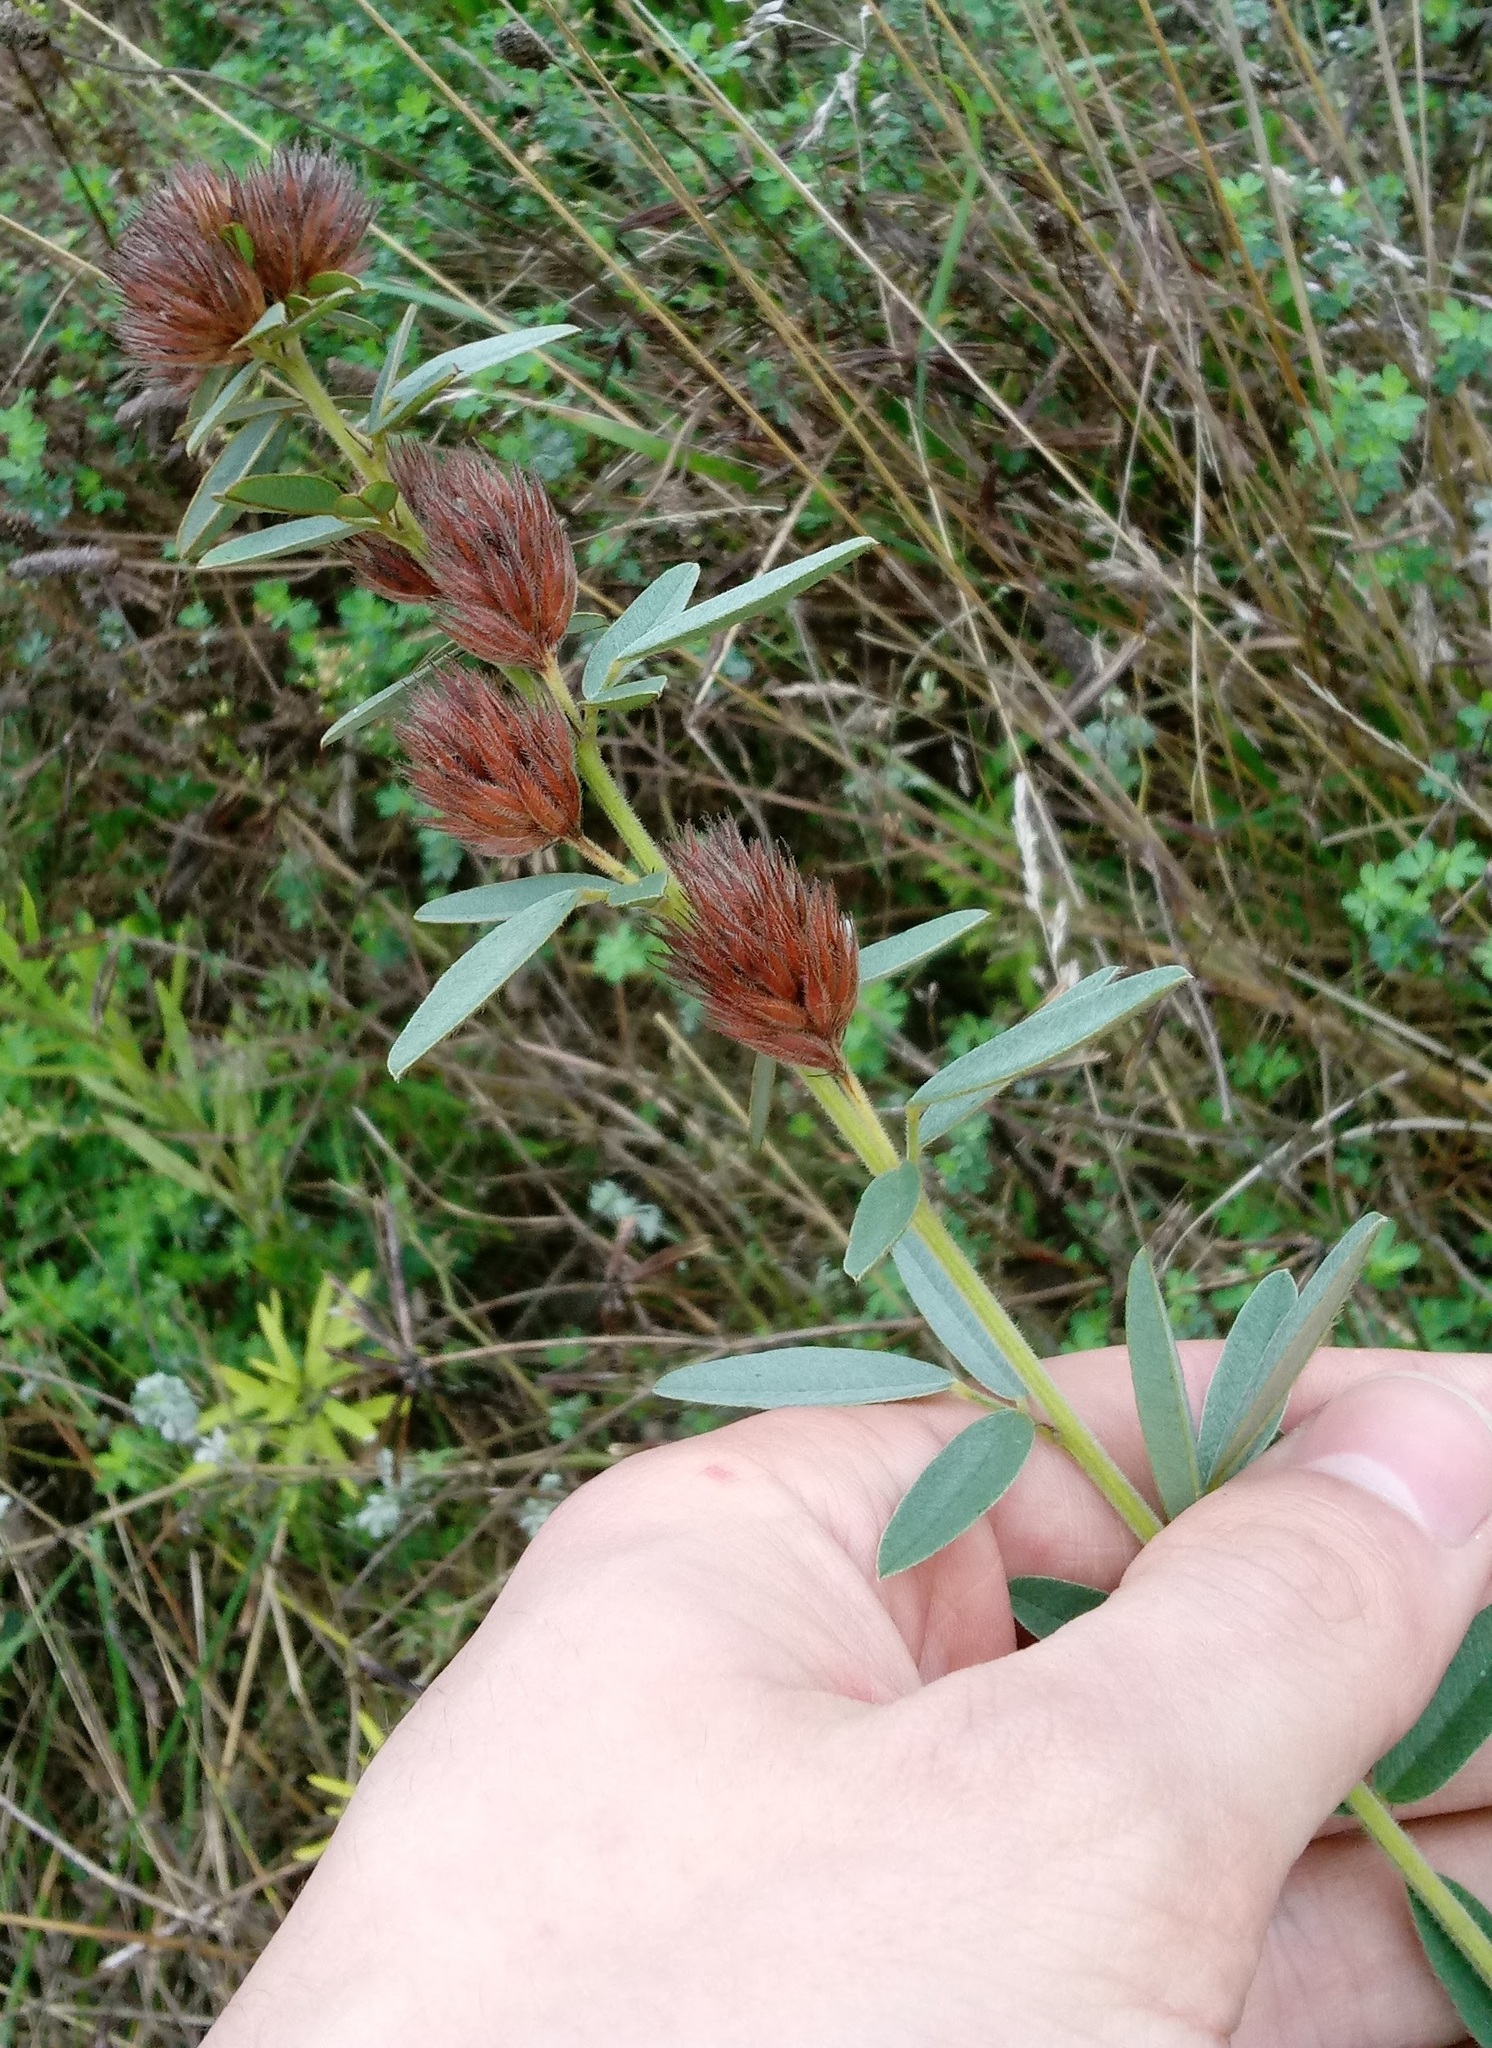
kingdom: Plantae
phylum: Tracheophyta
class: Magnoliopsida
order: Fabales
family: Fabaceae
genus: Lespedeza
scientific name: Lespedeza capitata
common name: Dusty clover
